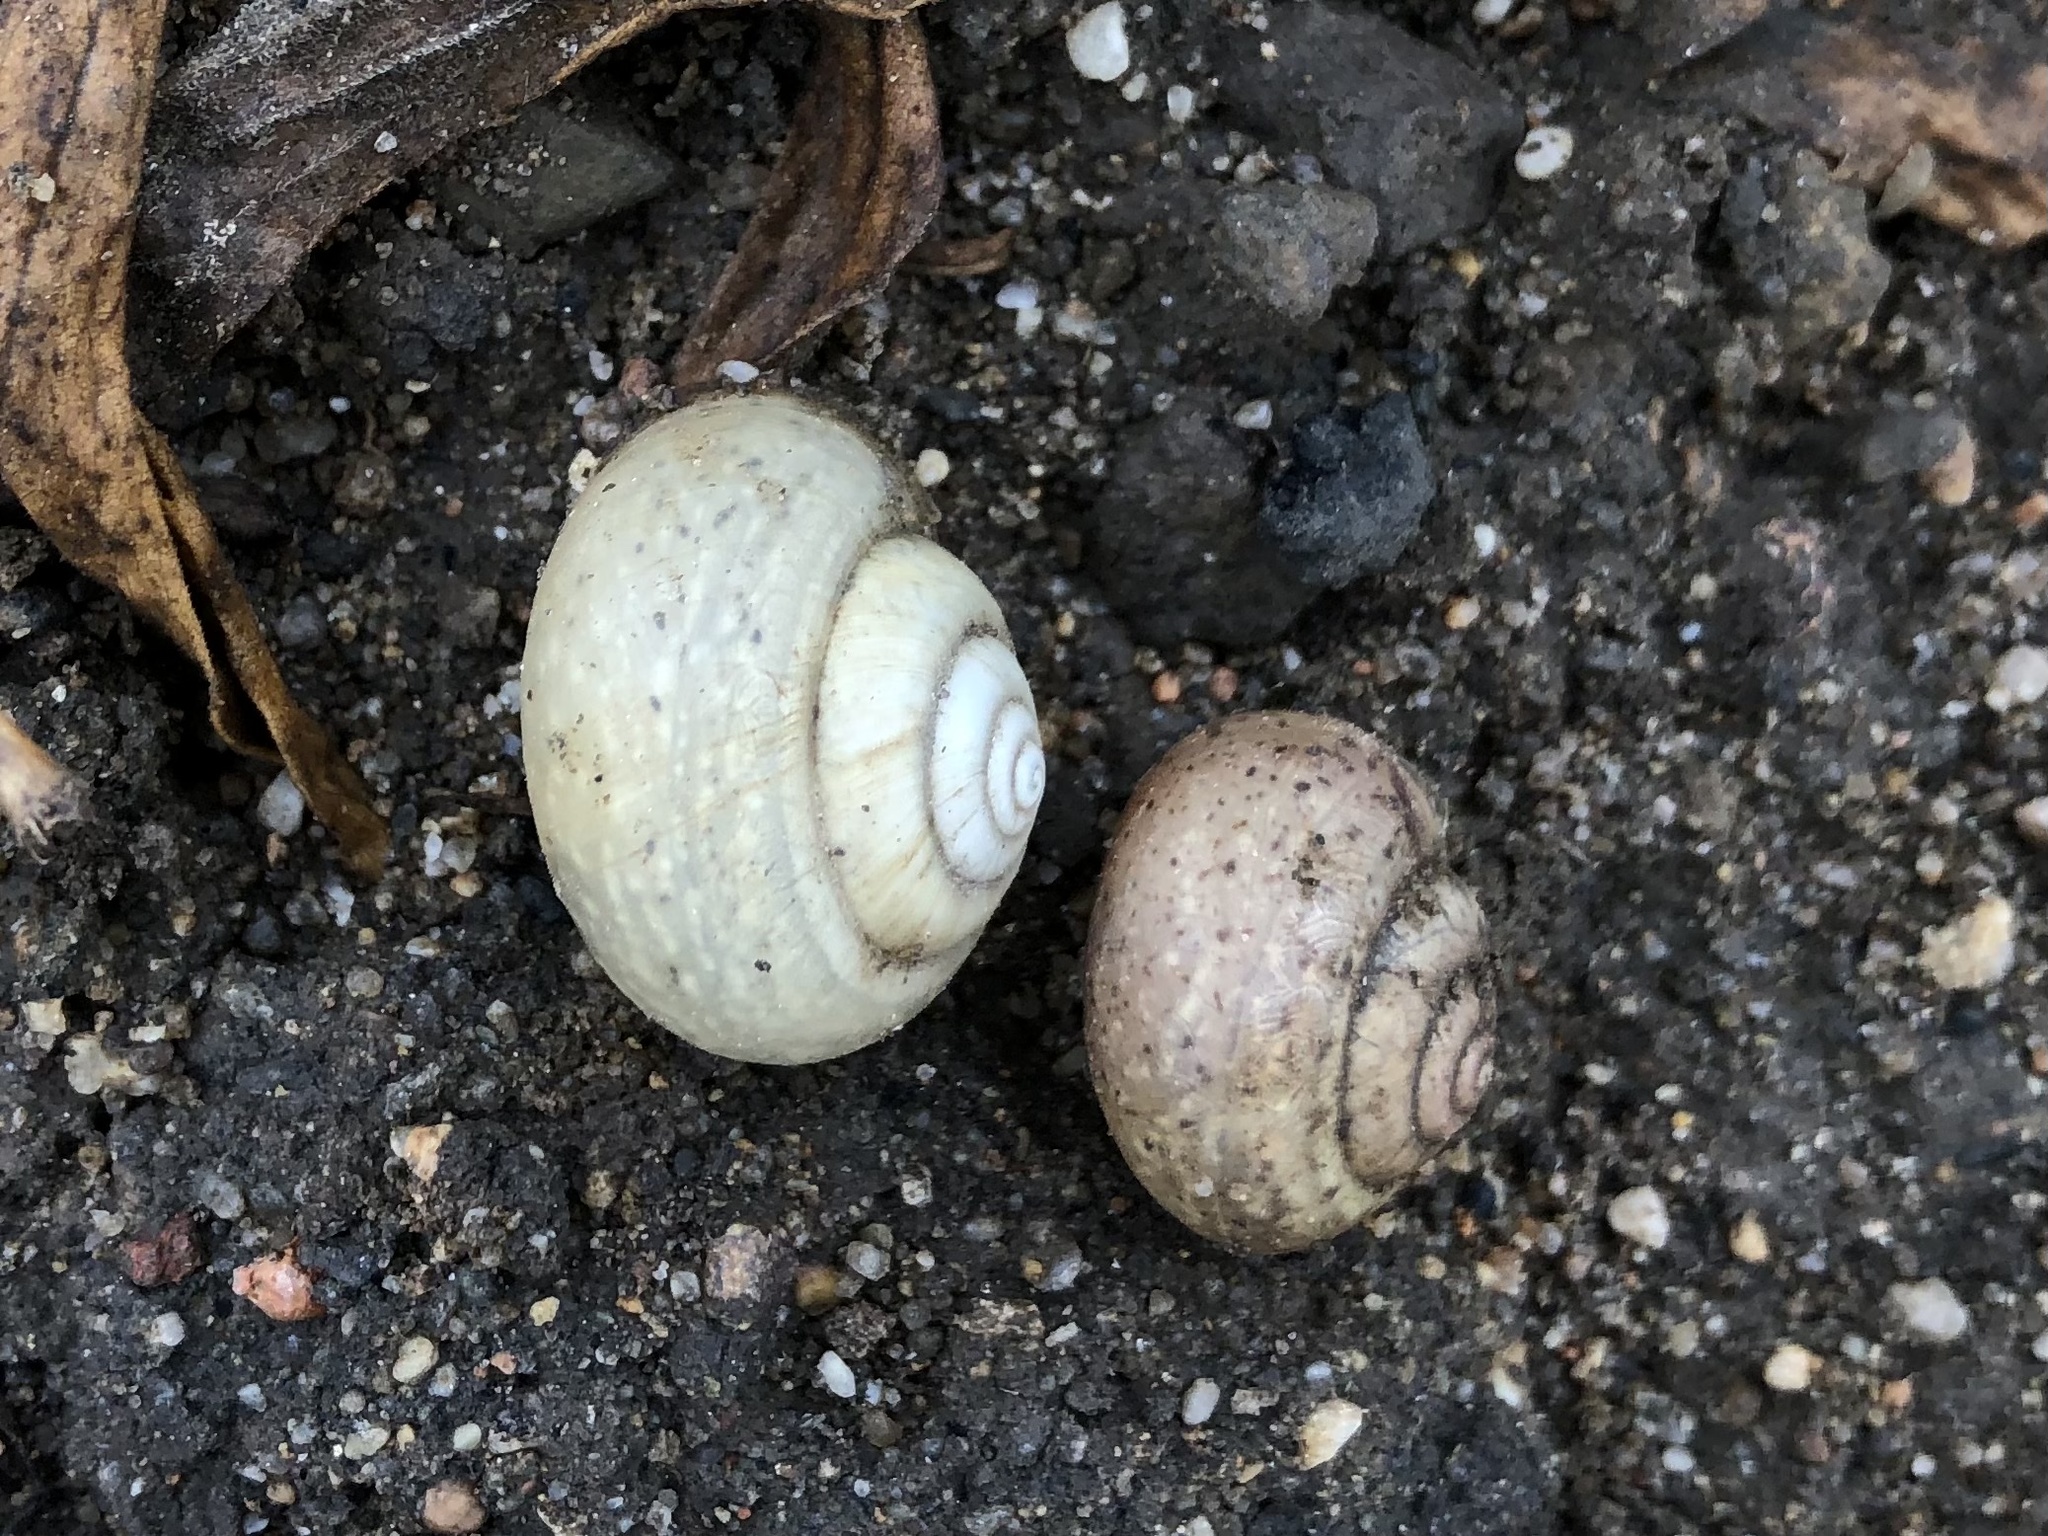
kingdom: Animalia
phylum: Mollusca
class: Gastropoda
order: Stylommatophora
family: Camaenidae
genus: Fruticicola
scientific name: Fruticicola fruticum
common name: Bush snail
